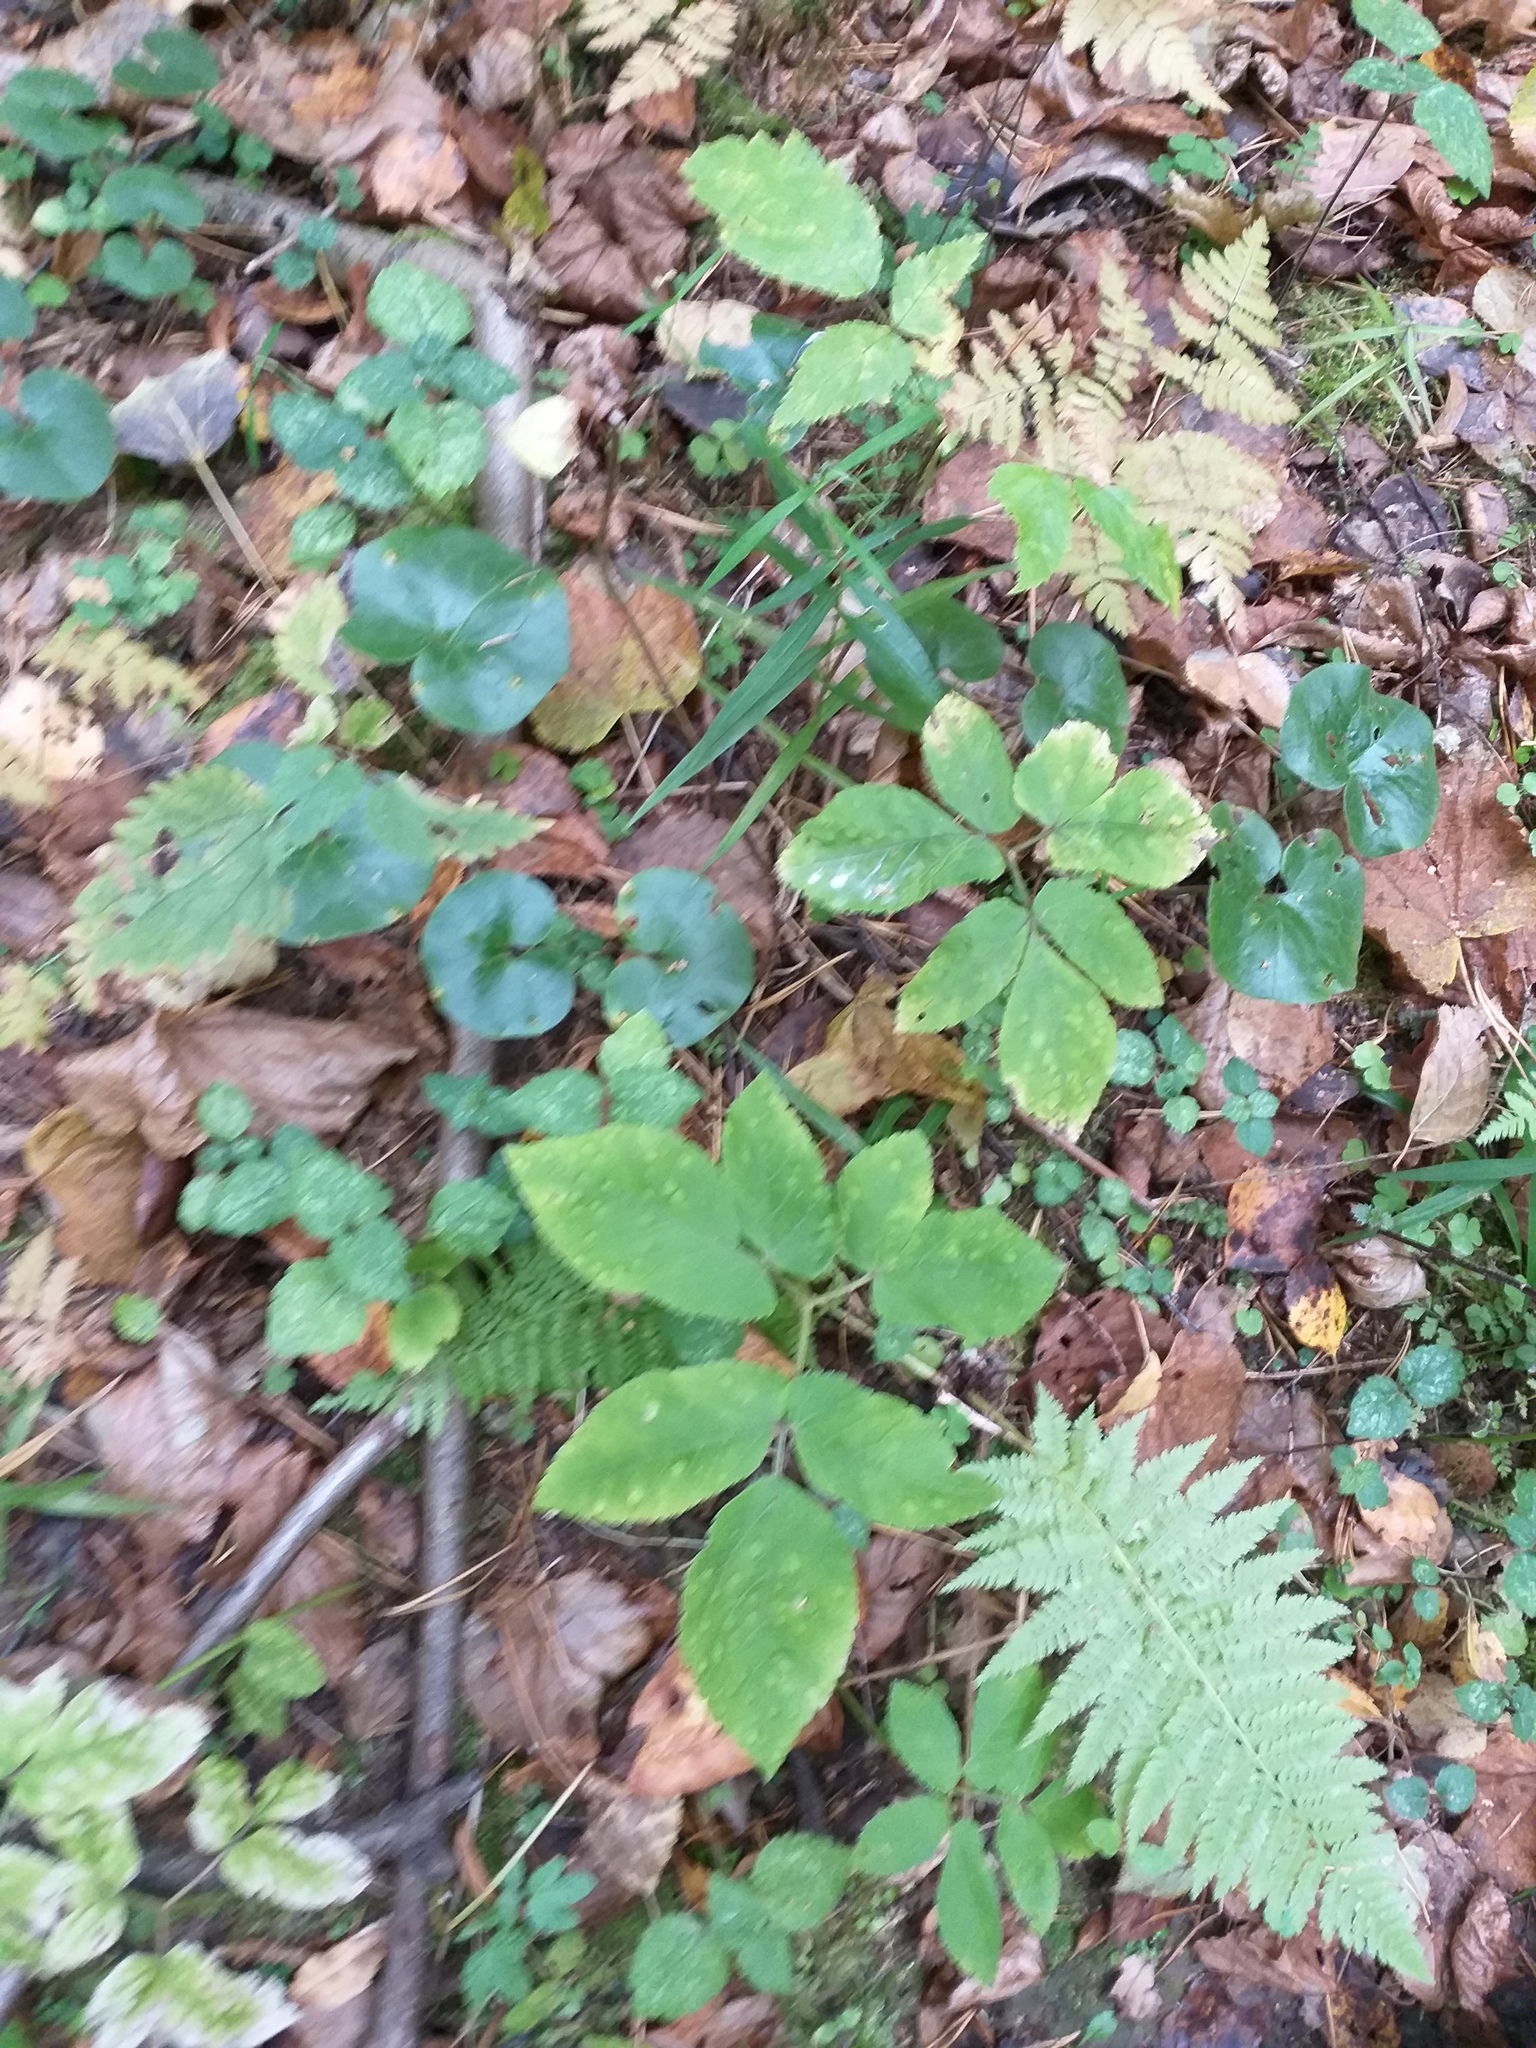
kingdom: Plantae
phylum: Tracheophyta
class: Magnoliopsida
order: Apiales
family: Apiaceae
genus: Aegopodium
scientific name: Aegopodium podagraria
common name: Ground-elder
